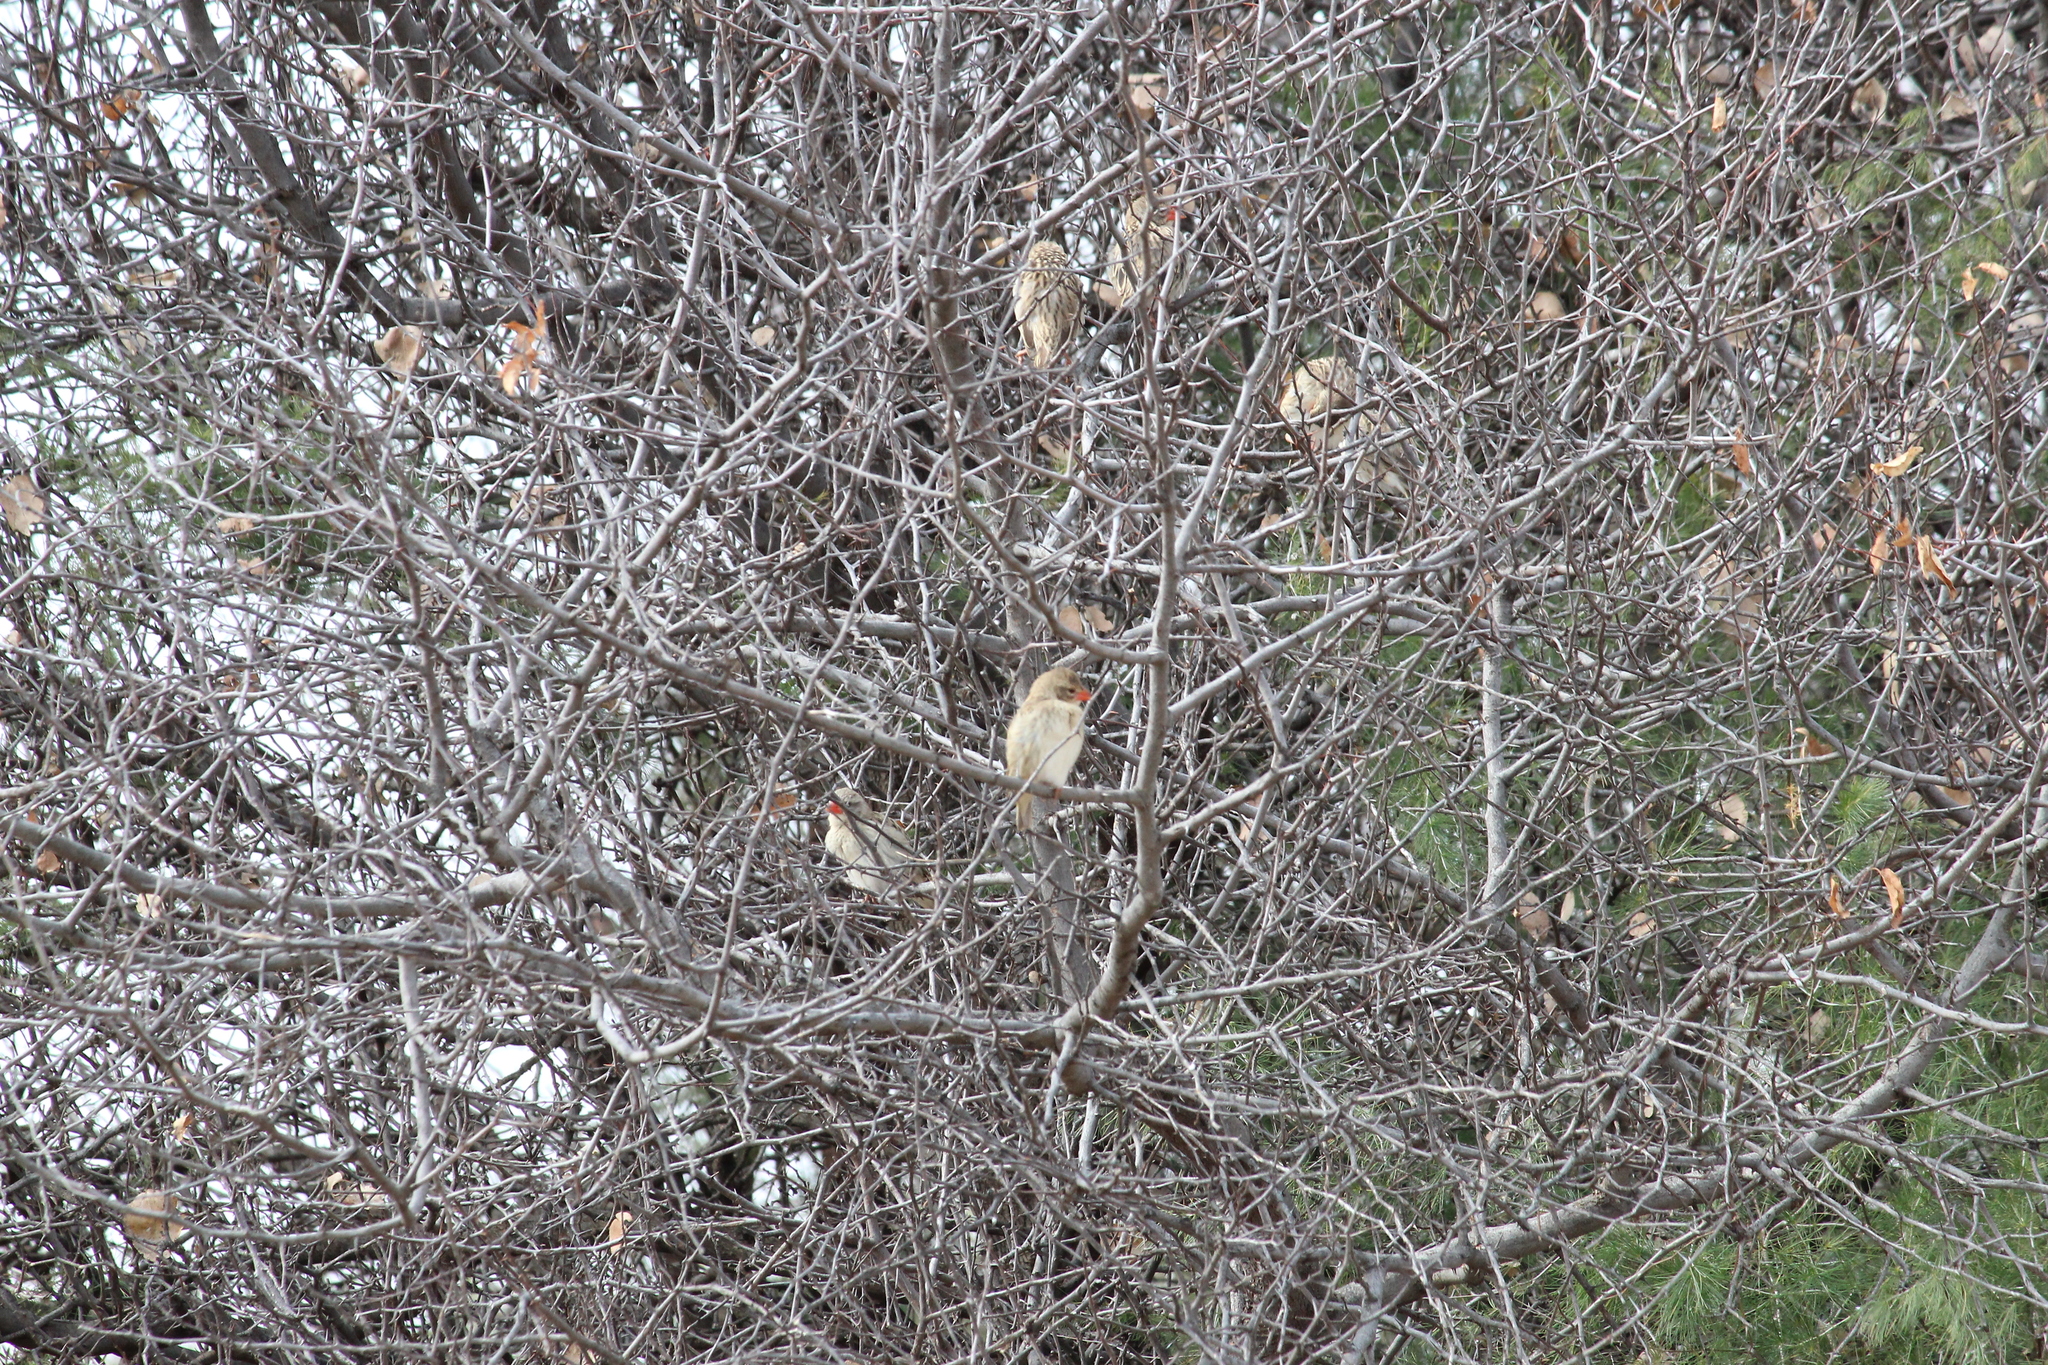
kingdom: Animalia
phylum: Chordata
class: Aves
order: Passeriformes
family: Ploceidae
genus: Quelea
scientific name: Quelea quelea
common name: Red-billed quelea
